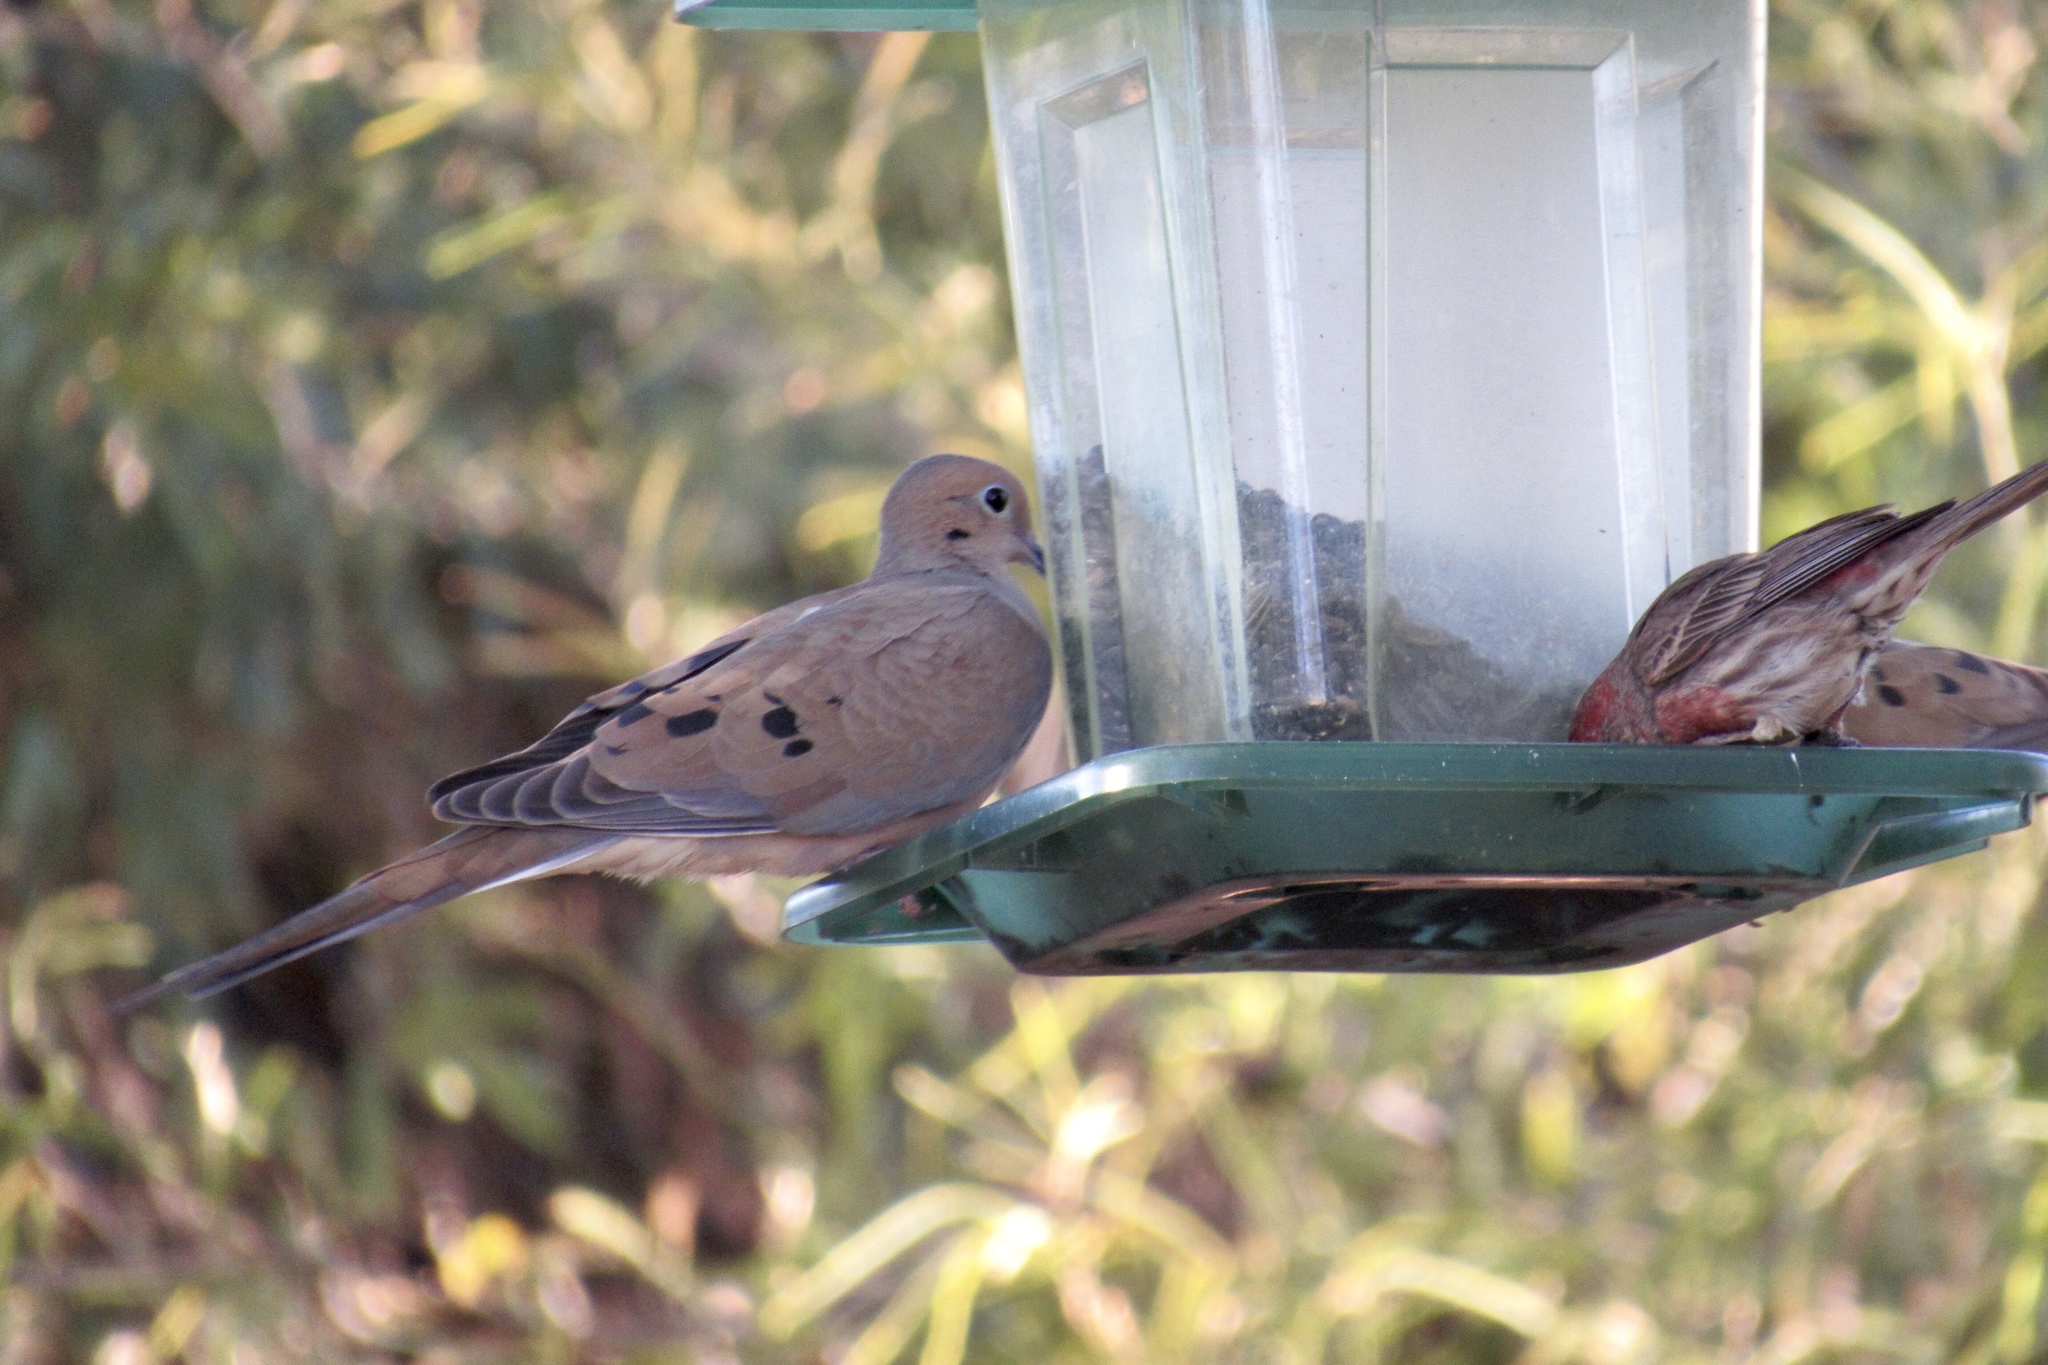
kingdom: Animalia
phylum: Chordata
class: Aves
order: Columbiformes
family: Columbidae
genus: Zenaida
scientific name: Zenaida macroura
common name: Mourning dove
